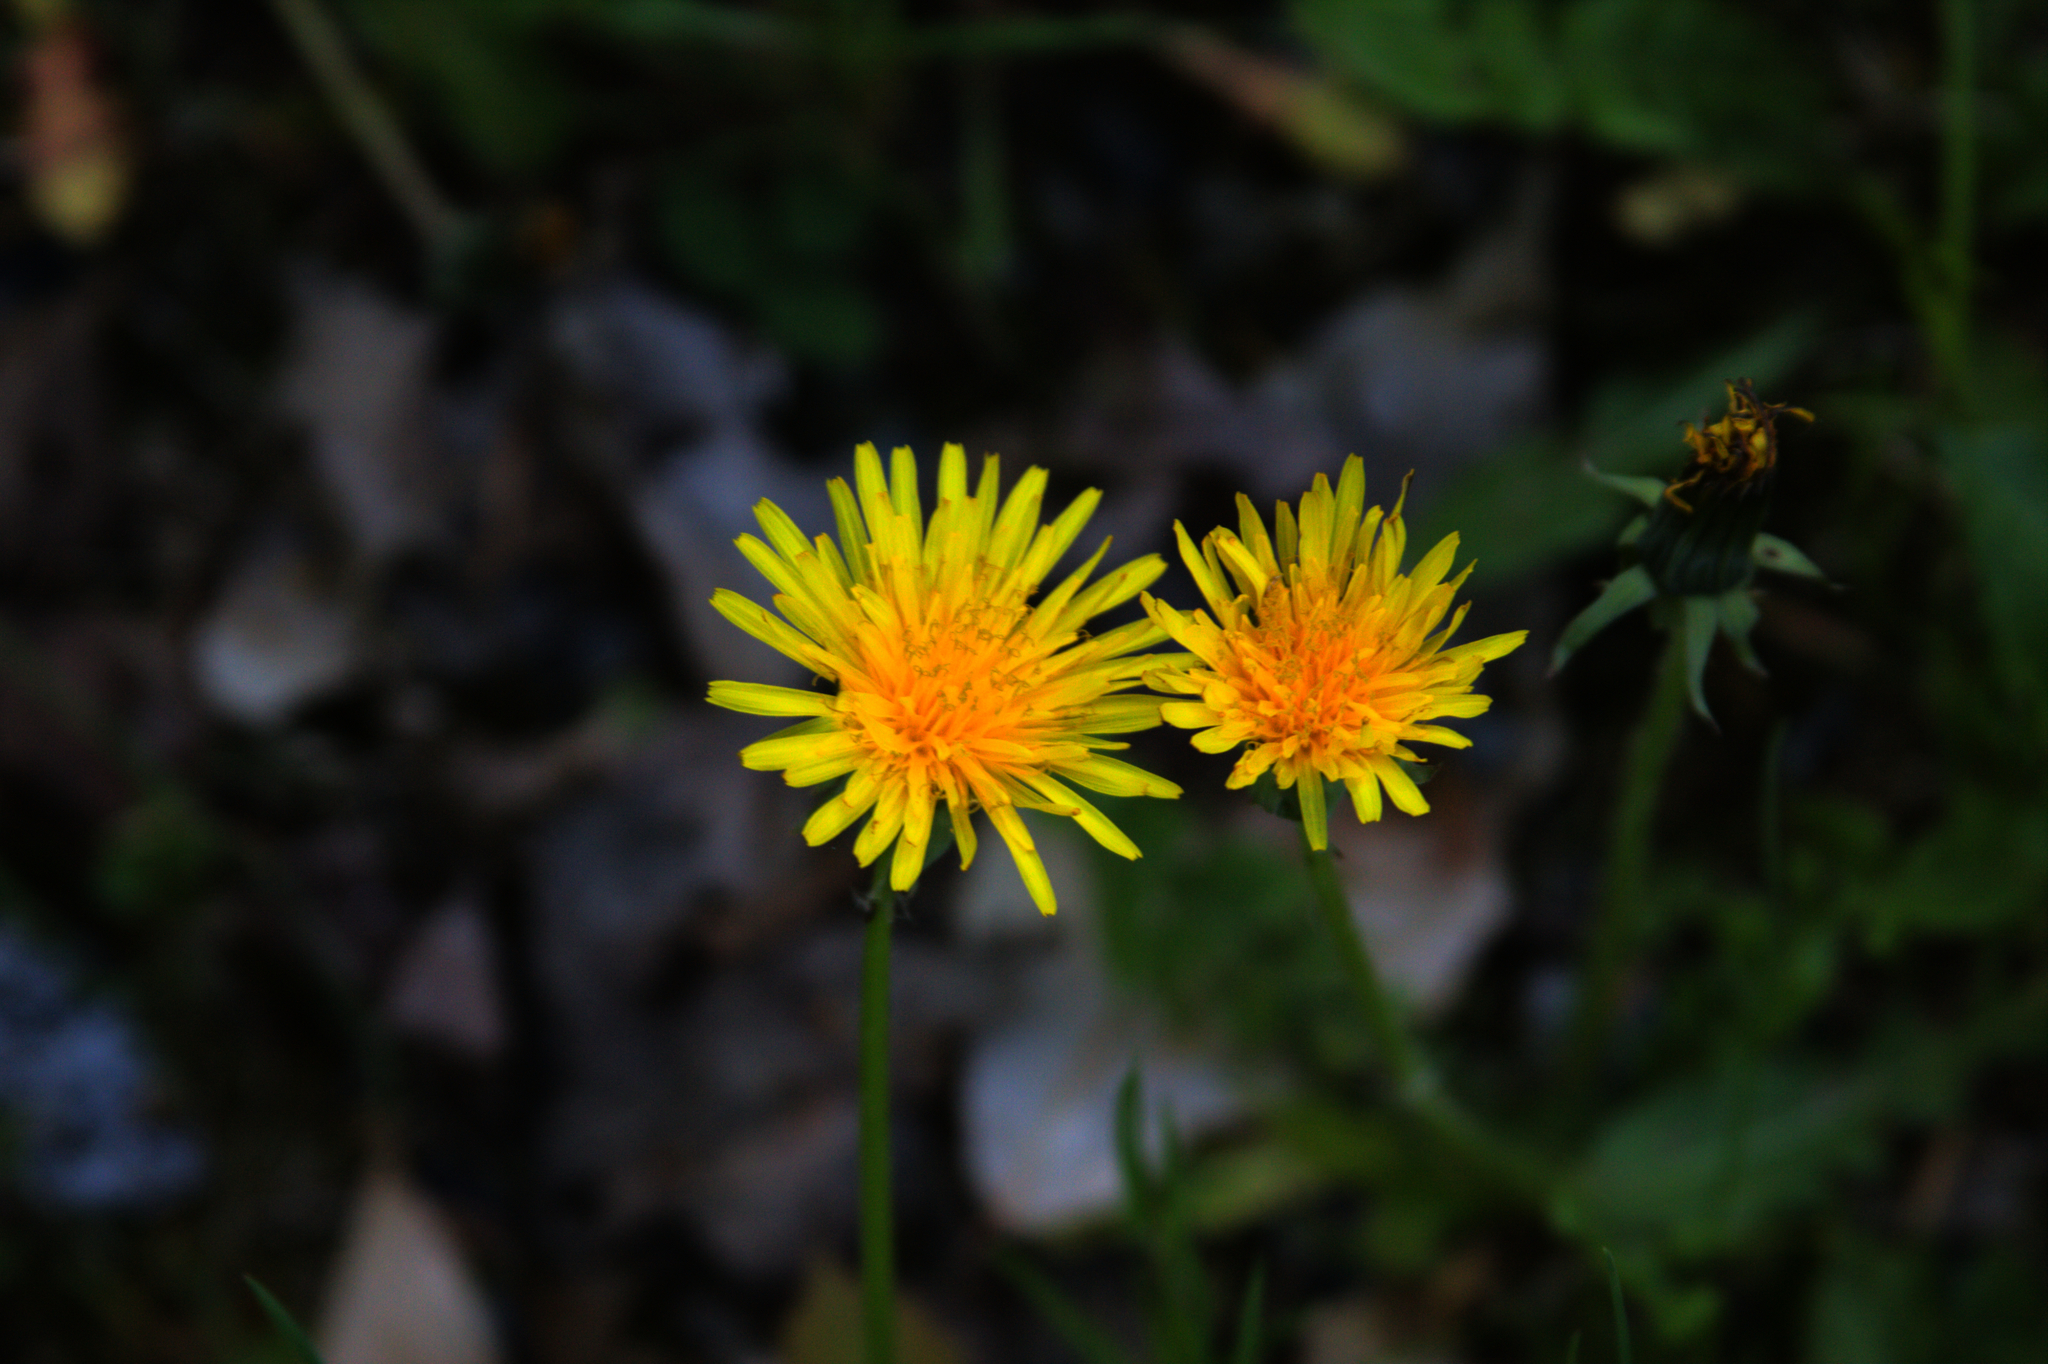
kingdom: Plantae
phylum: Tracheophyta
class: Magnoliopsida
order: Asterales
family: Asteraceae
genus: Taraxacum
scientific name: Taraxacum officinale
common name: Common dandelion
